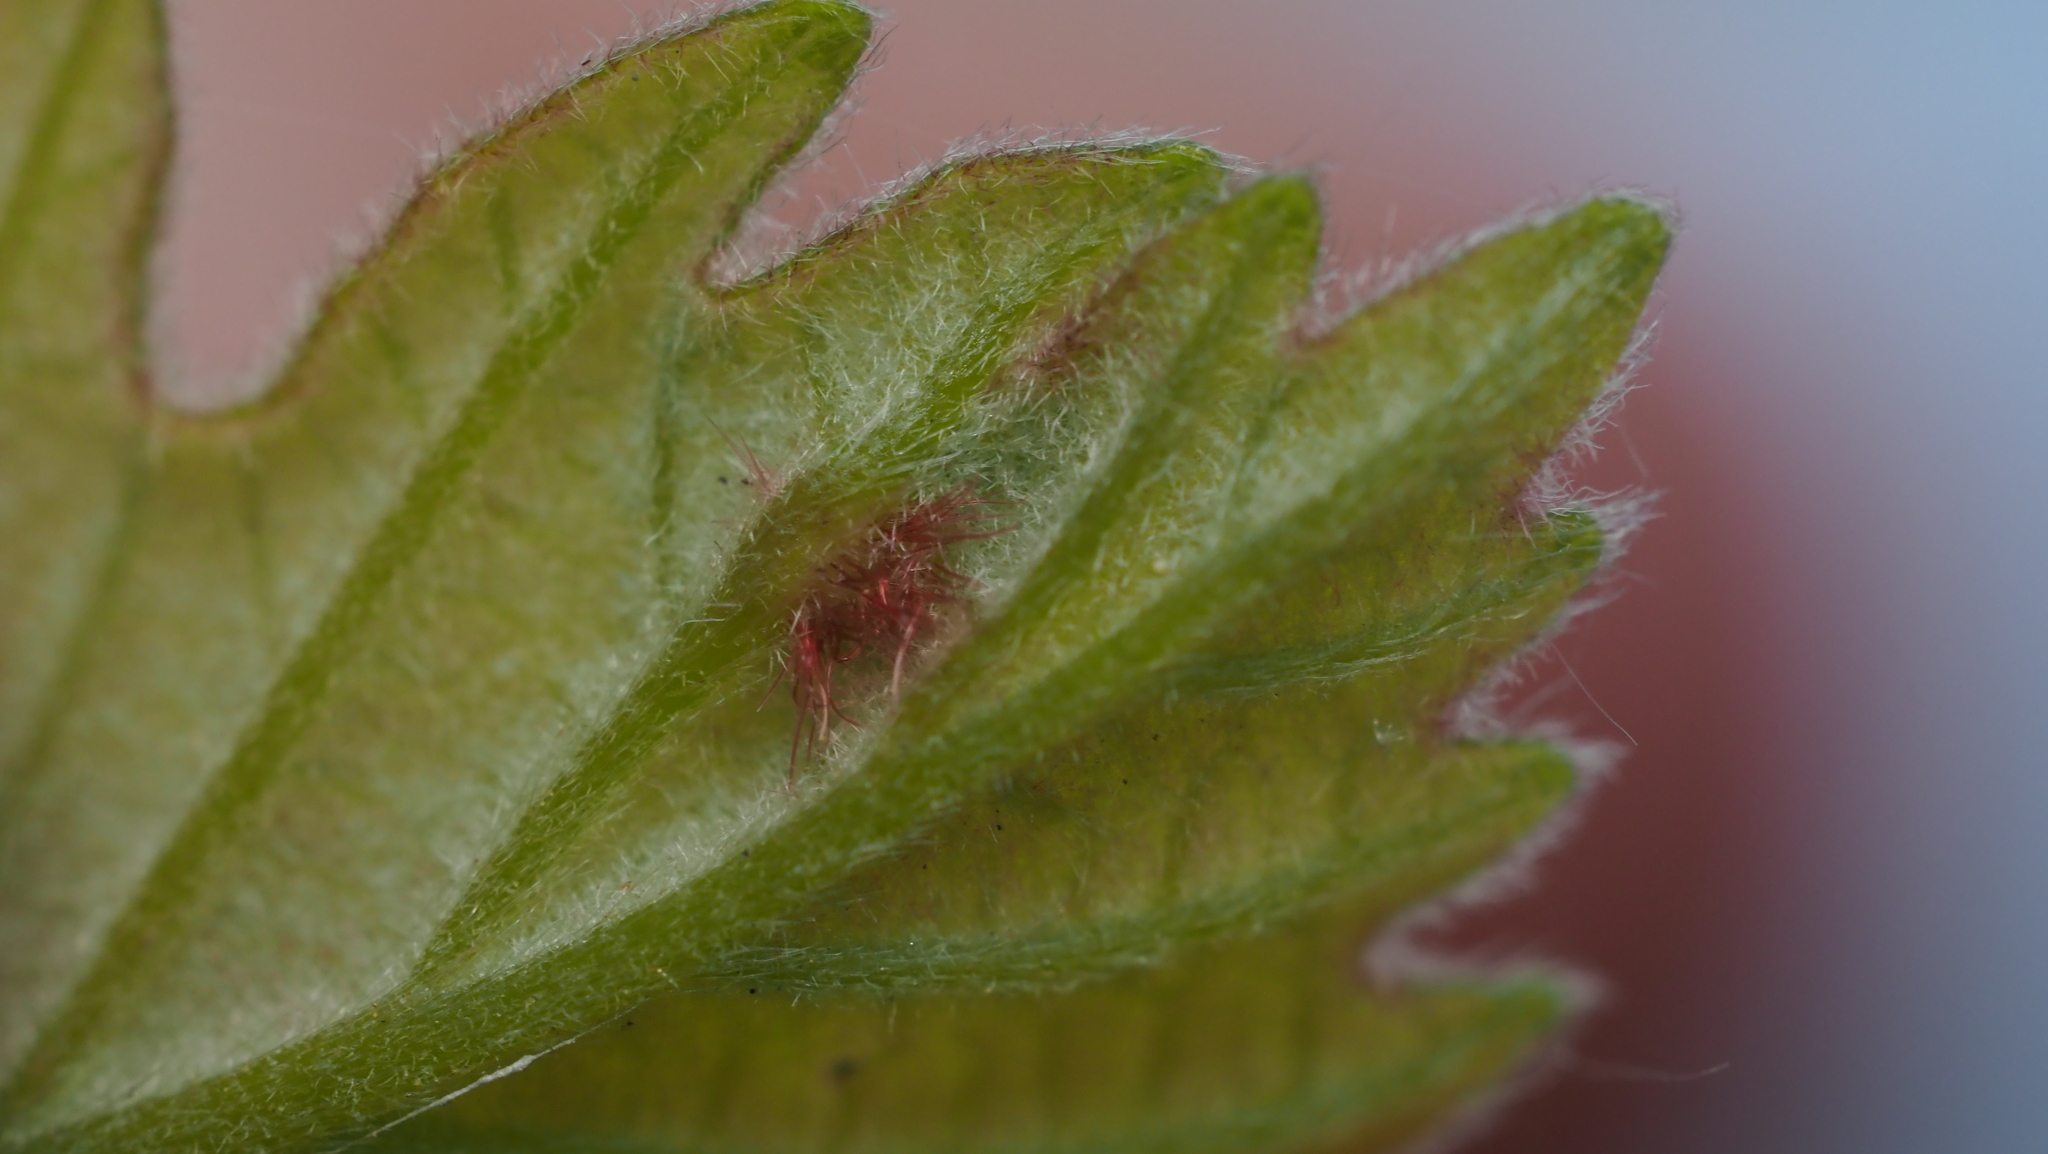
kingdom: Animalia
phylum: Arthropoda
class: Insecta
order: Hymenoptera
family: Cynipidae
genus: Neuroterus
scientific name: Neuroterus
